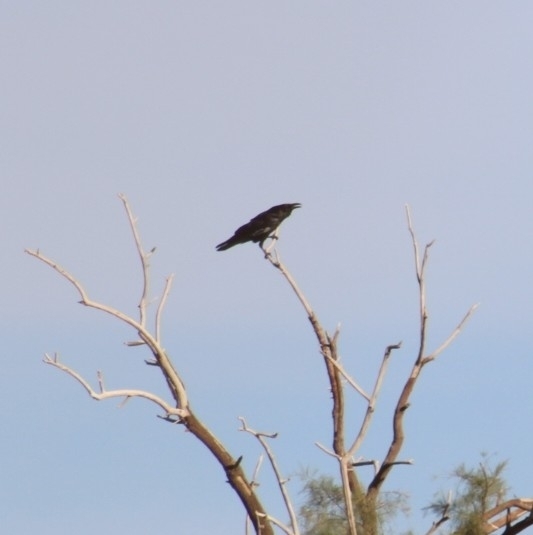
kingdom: Animalia
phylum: Chordata
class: Aves
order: Passeriformes
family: Corvidae
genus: Corvus
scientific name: Corvus corax
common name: Common raven
